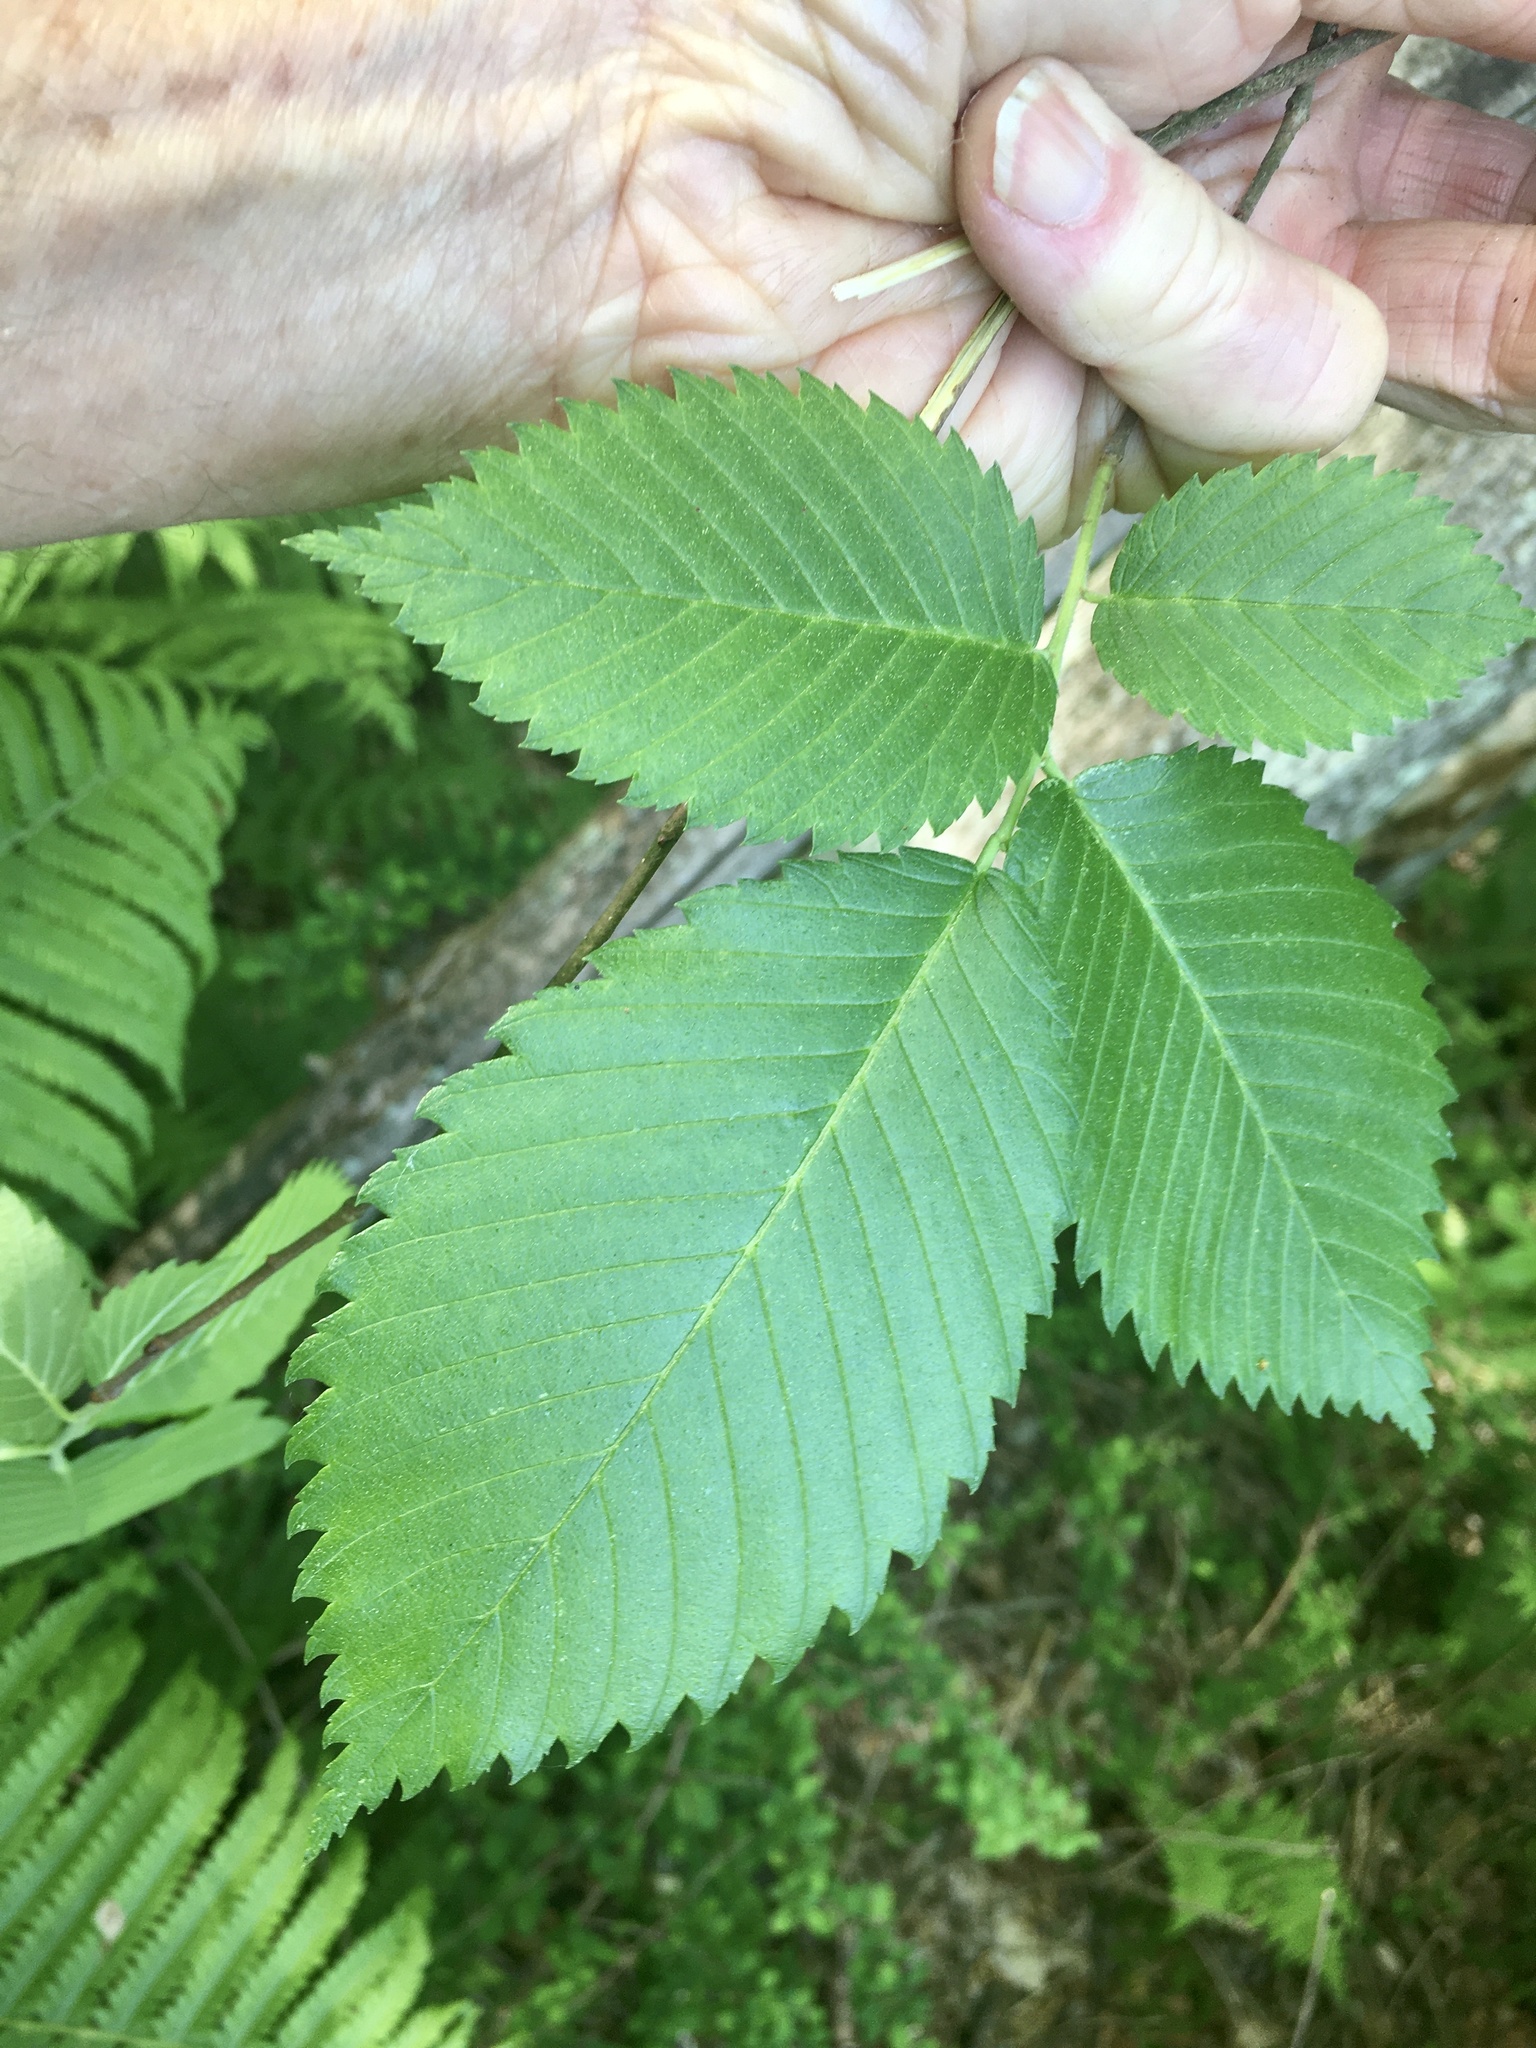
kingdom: Plantae
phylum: Tracheophyta
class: Magnoliopsida
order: Rosales
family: Ulmaceae
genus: Ulmus
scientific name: Ulmus americana
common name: American elm
